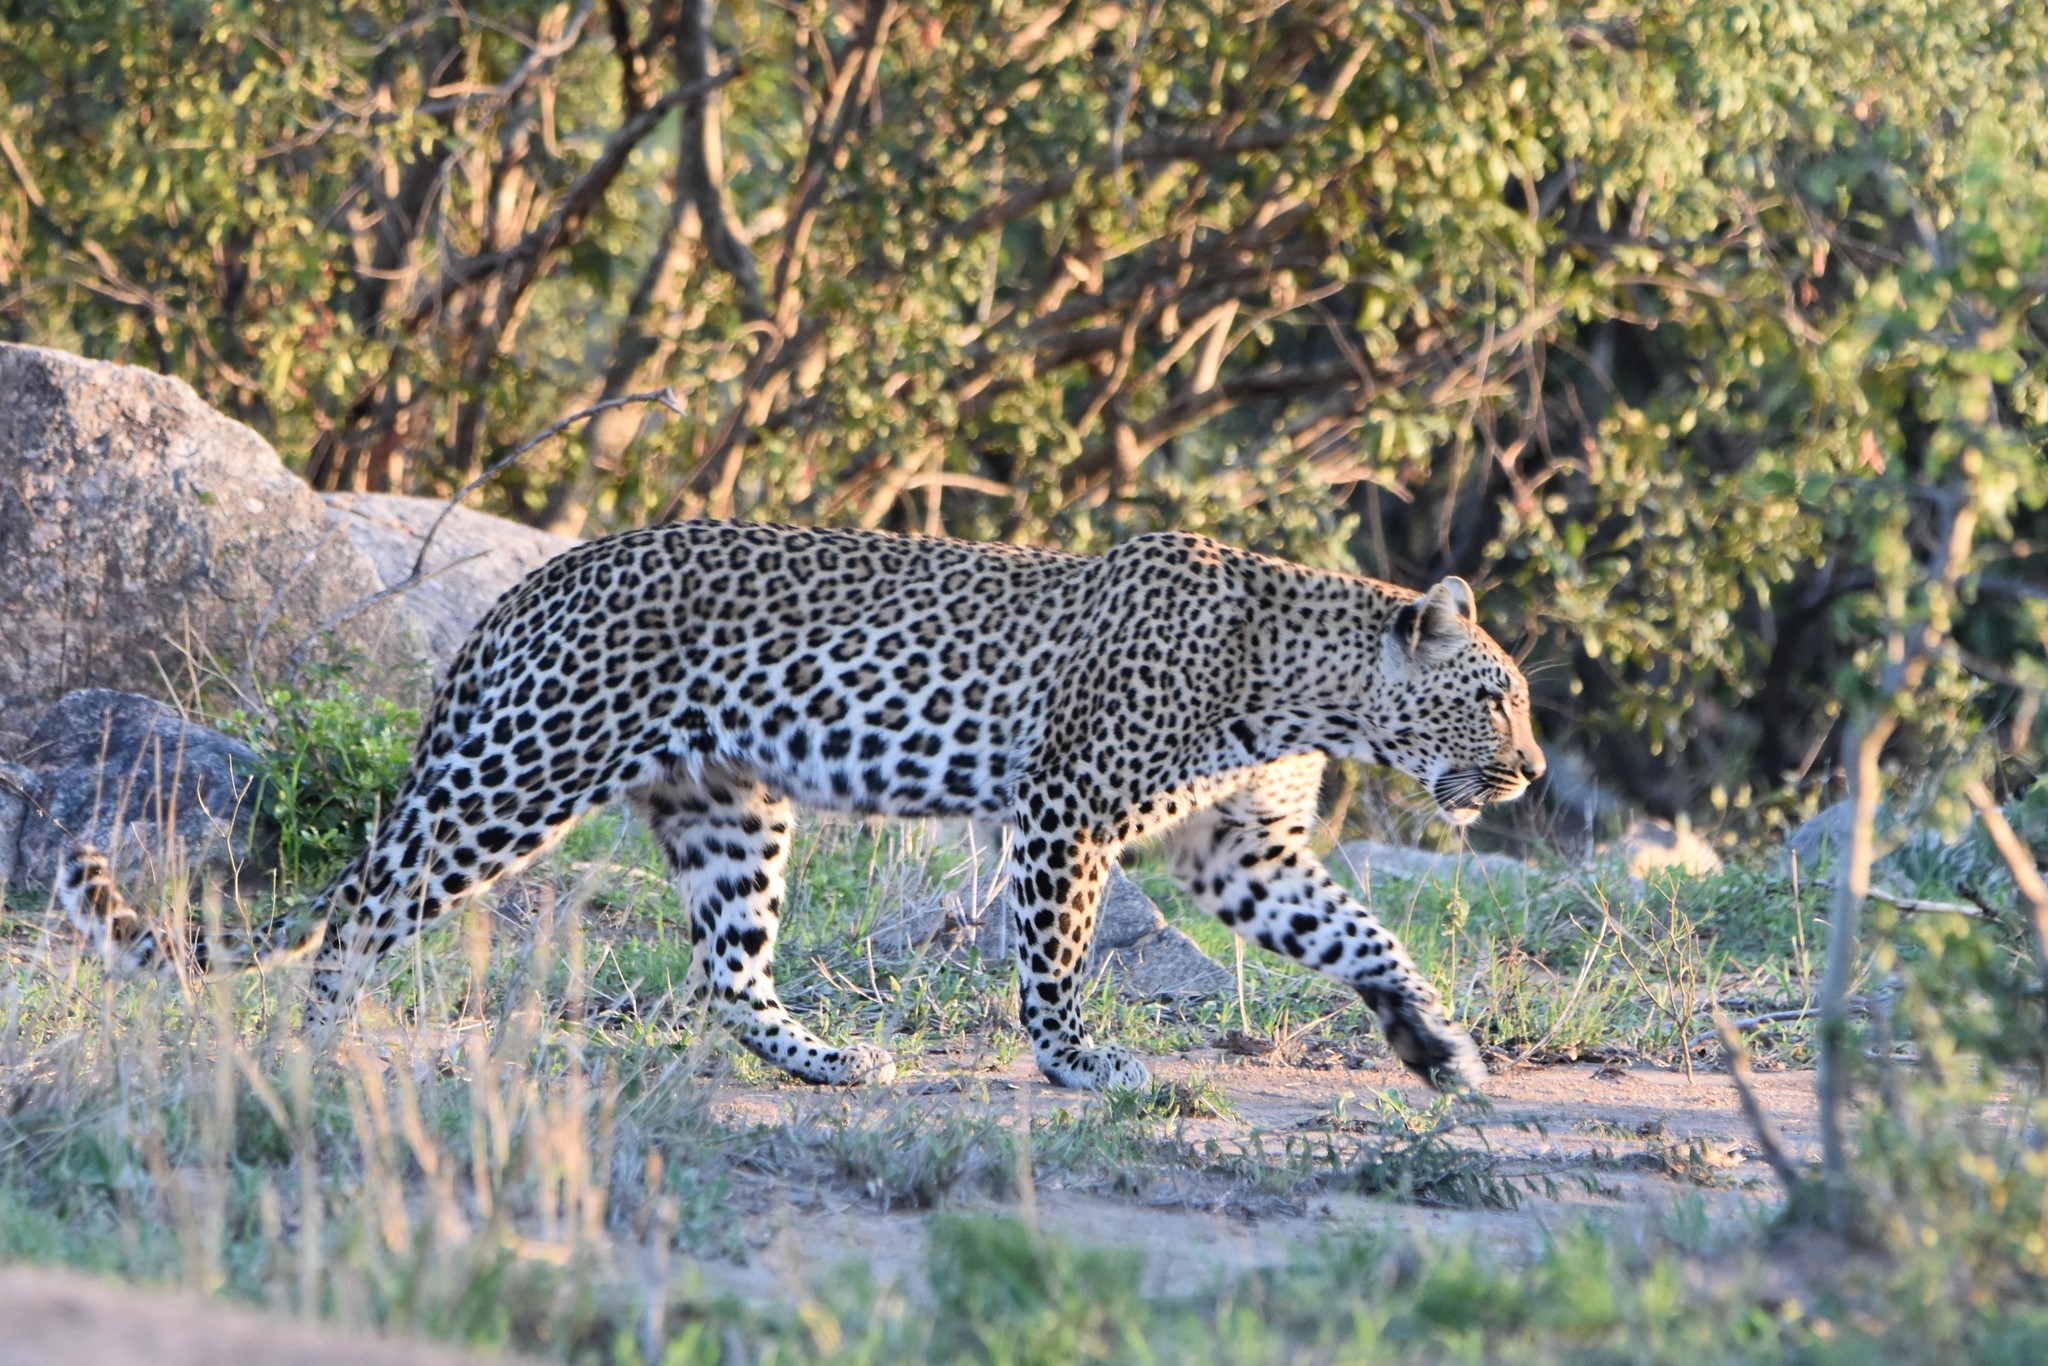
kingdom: Animalia
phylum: Chordata
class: Mammalia
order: Carnivora
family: Felidae
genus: Panthera
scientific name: Panthera pardus
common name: Leopard
